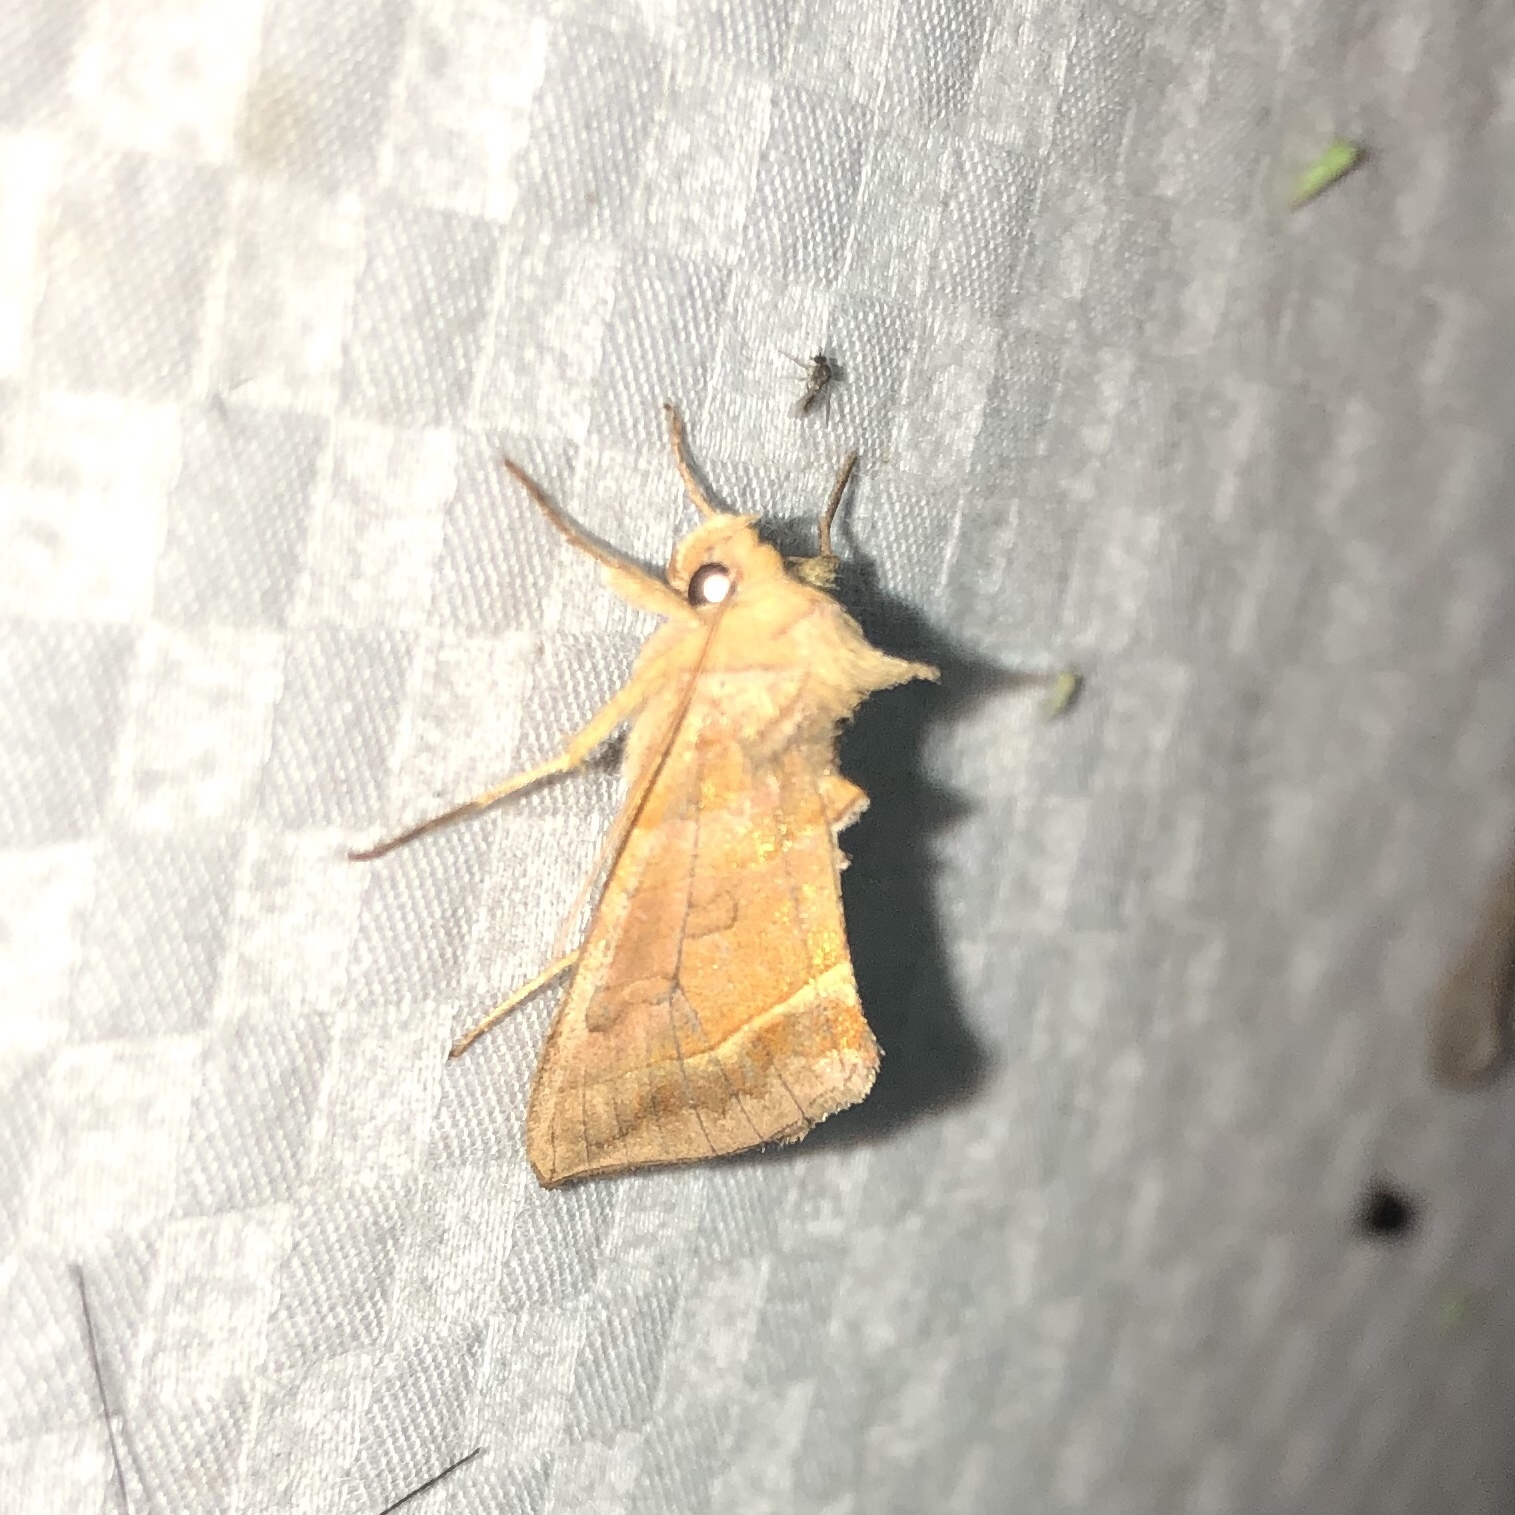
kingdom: Animalia
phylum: Arthropoda
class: Insecta
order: Lepidoptera
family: Noctuidae
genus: Diachrysia
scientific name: Diachrysia aereoides
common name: Dark-spotted looper moth
